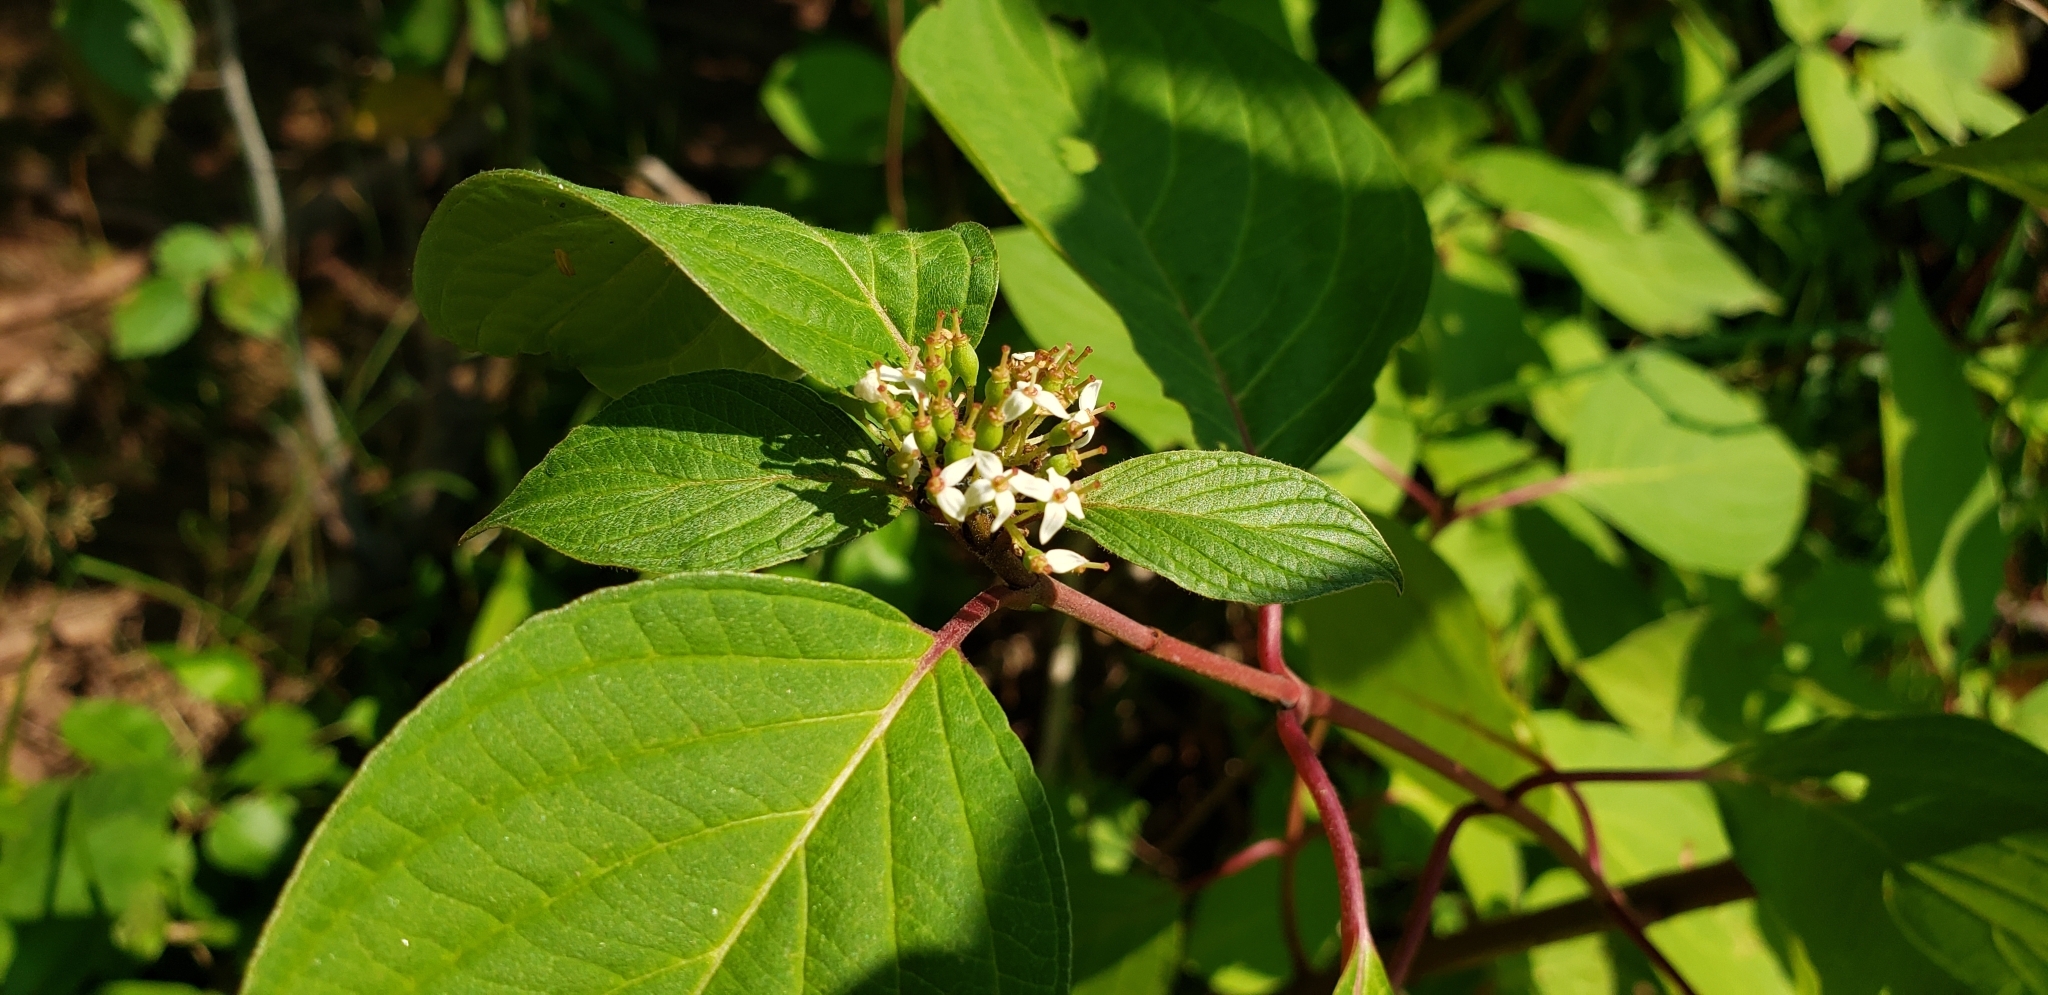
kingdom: Plantae
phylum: Tracheophyta
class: Magnoliopsida
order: Cornales
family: Cornaceae
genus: Cornus
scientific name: Cornus sericea
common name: Red-osier dogwood
